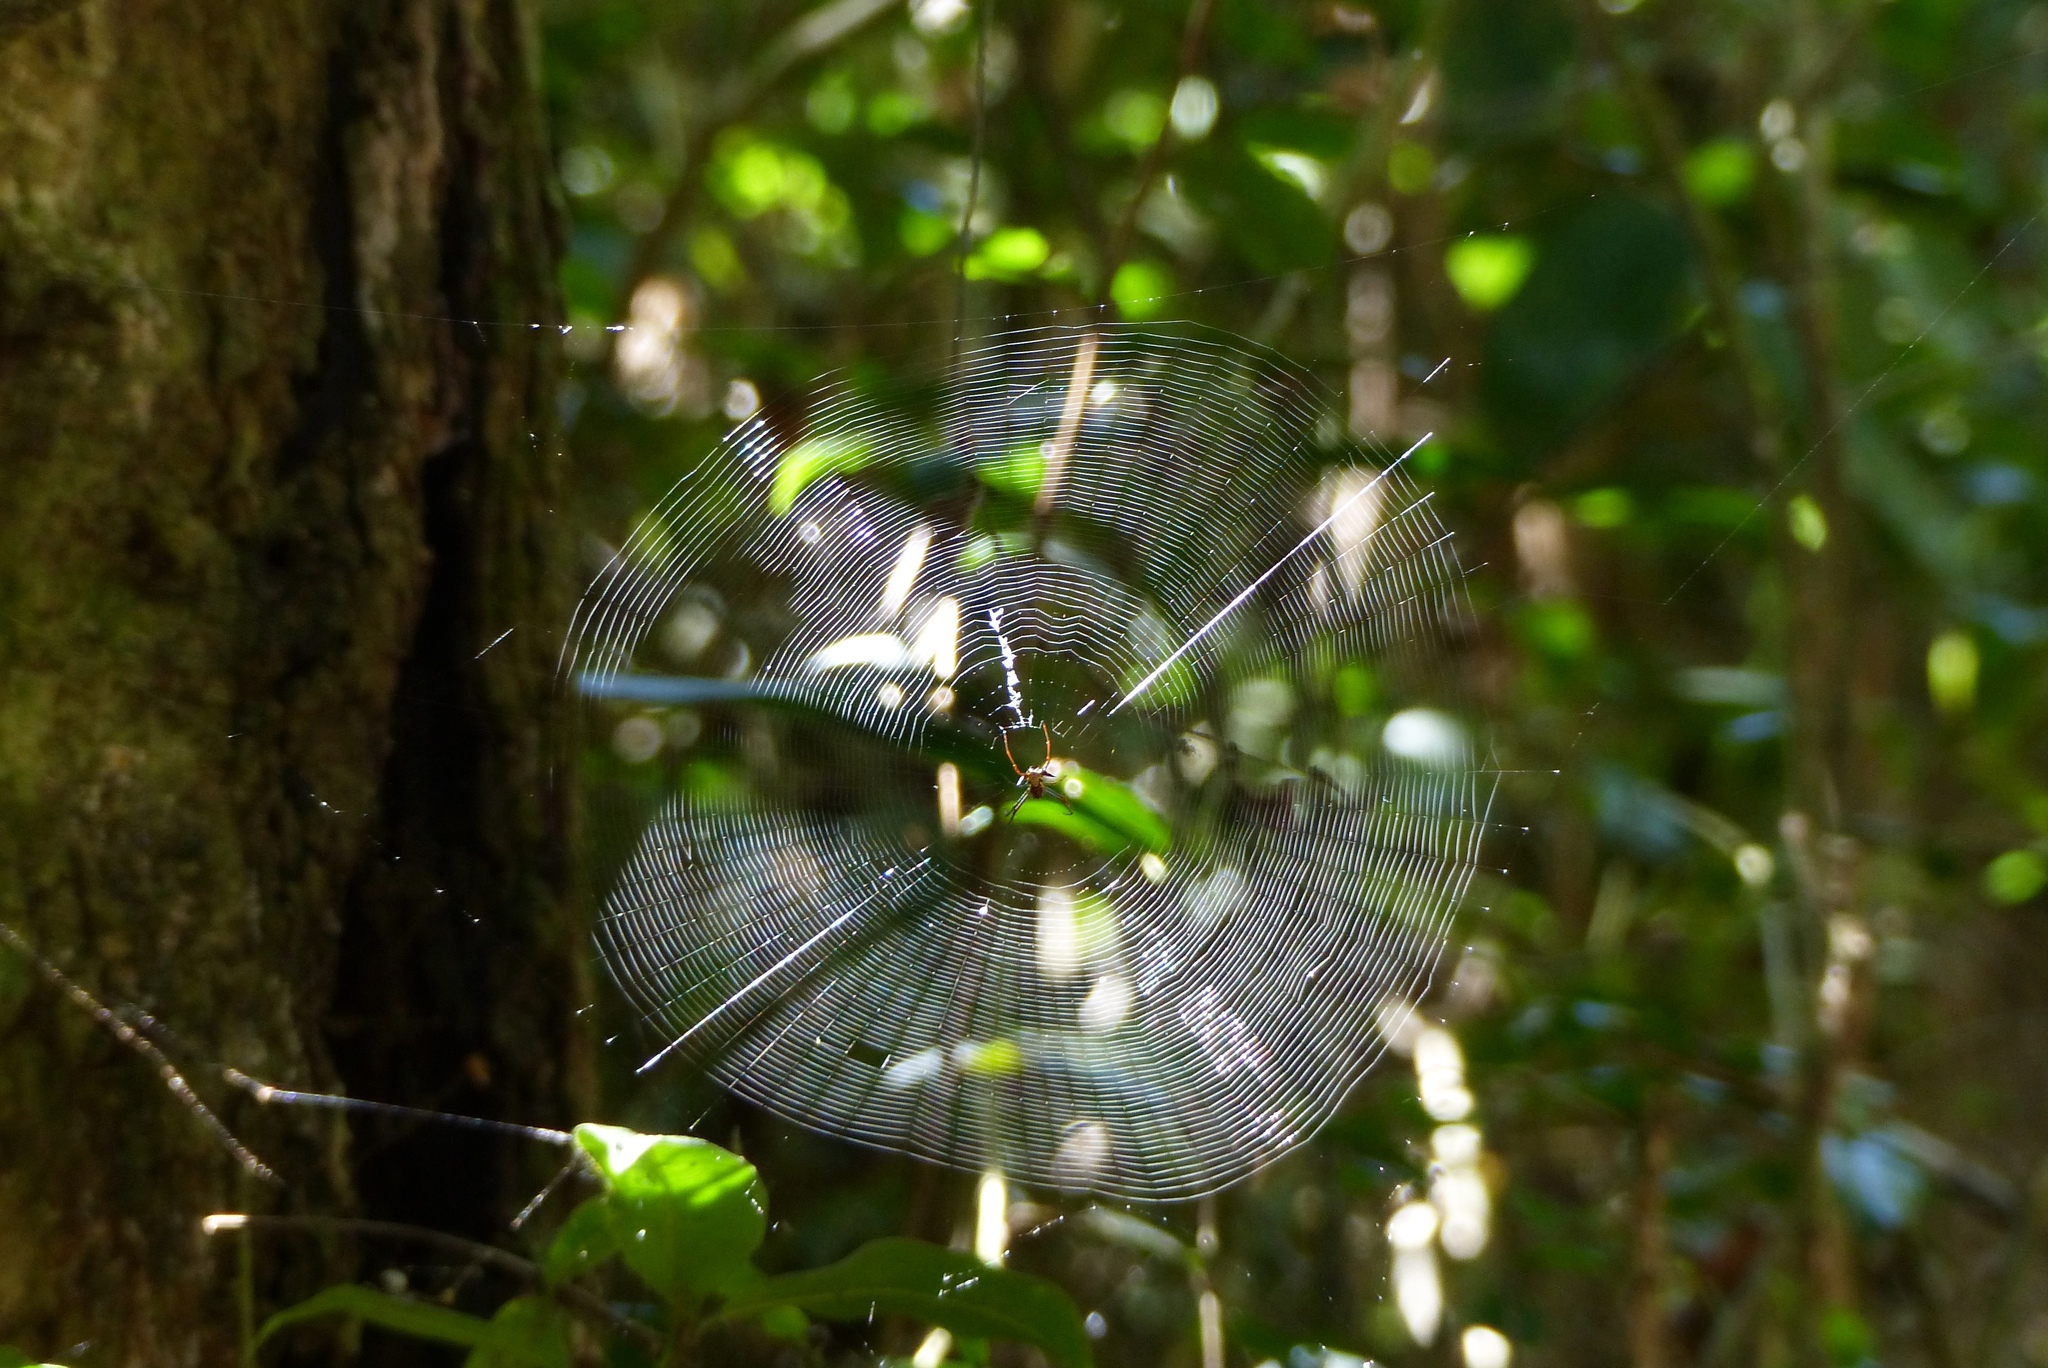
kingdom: Animalia
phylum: Arthropoda
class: Arachnida
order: Araneae
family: Araneidae
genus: Micrathena
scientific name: Micrathena schreibersi
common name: Orb weavers
